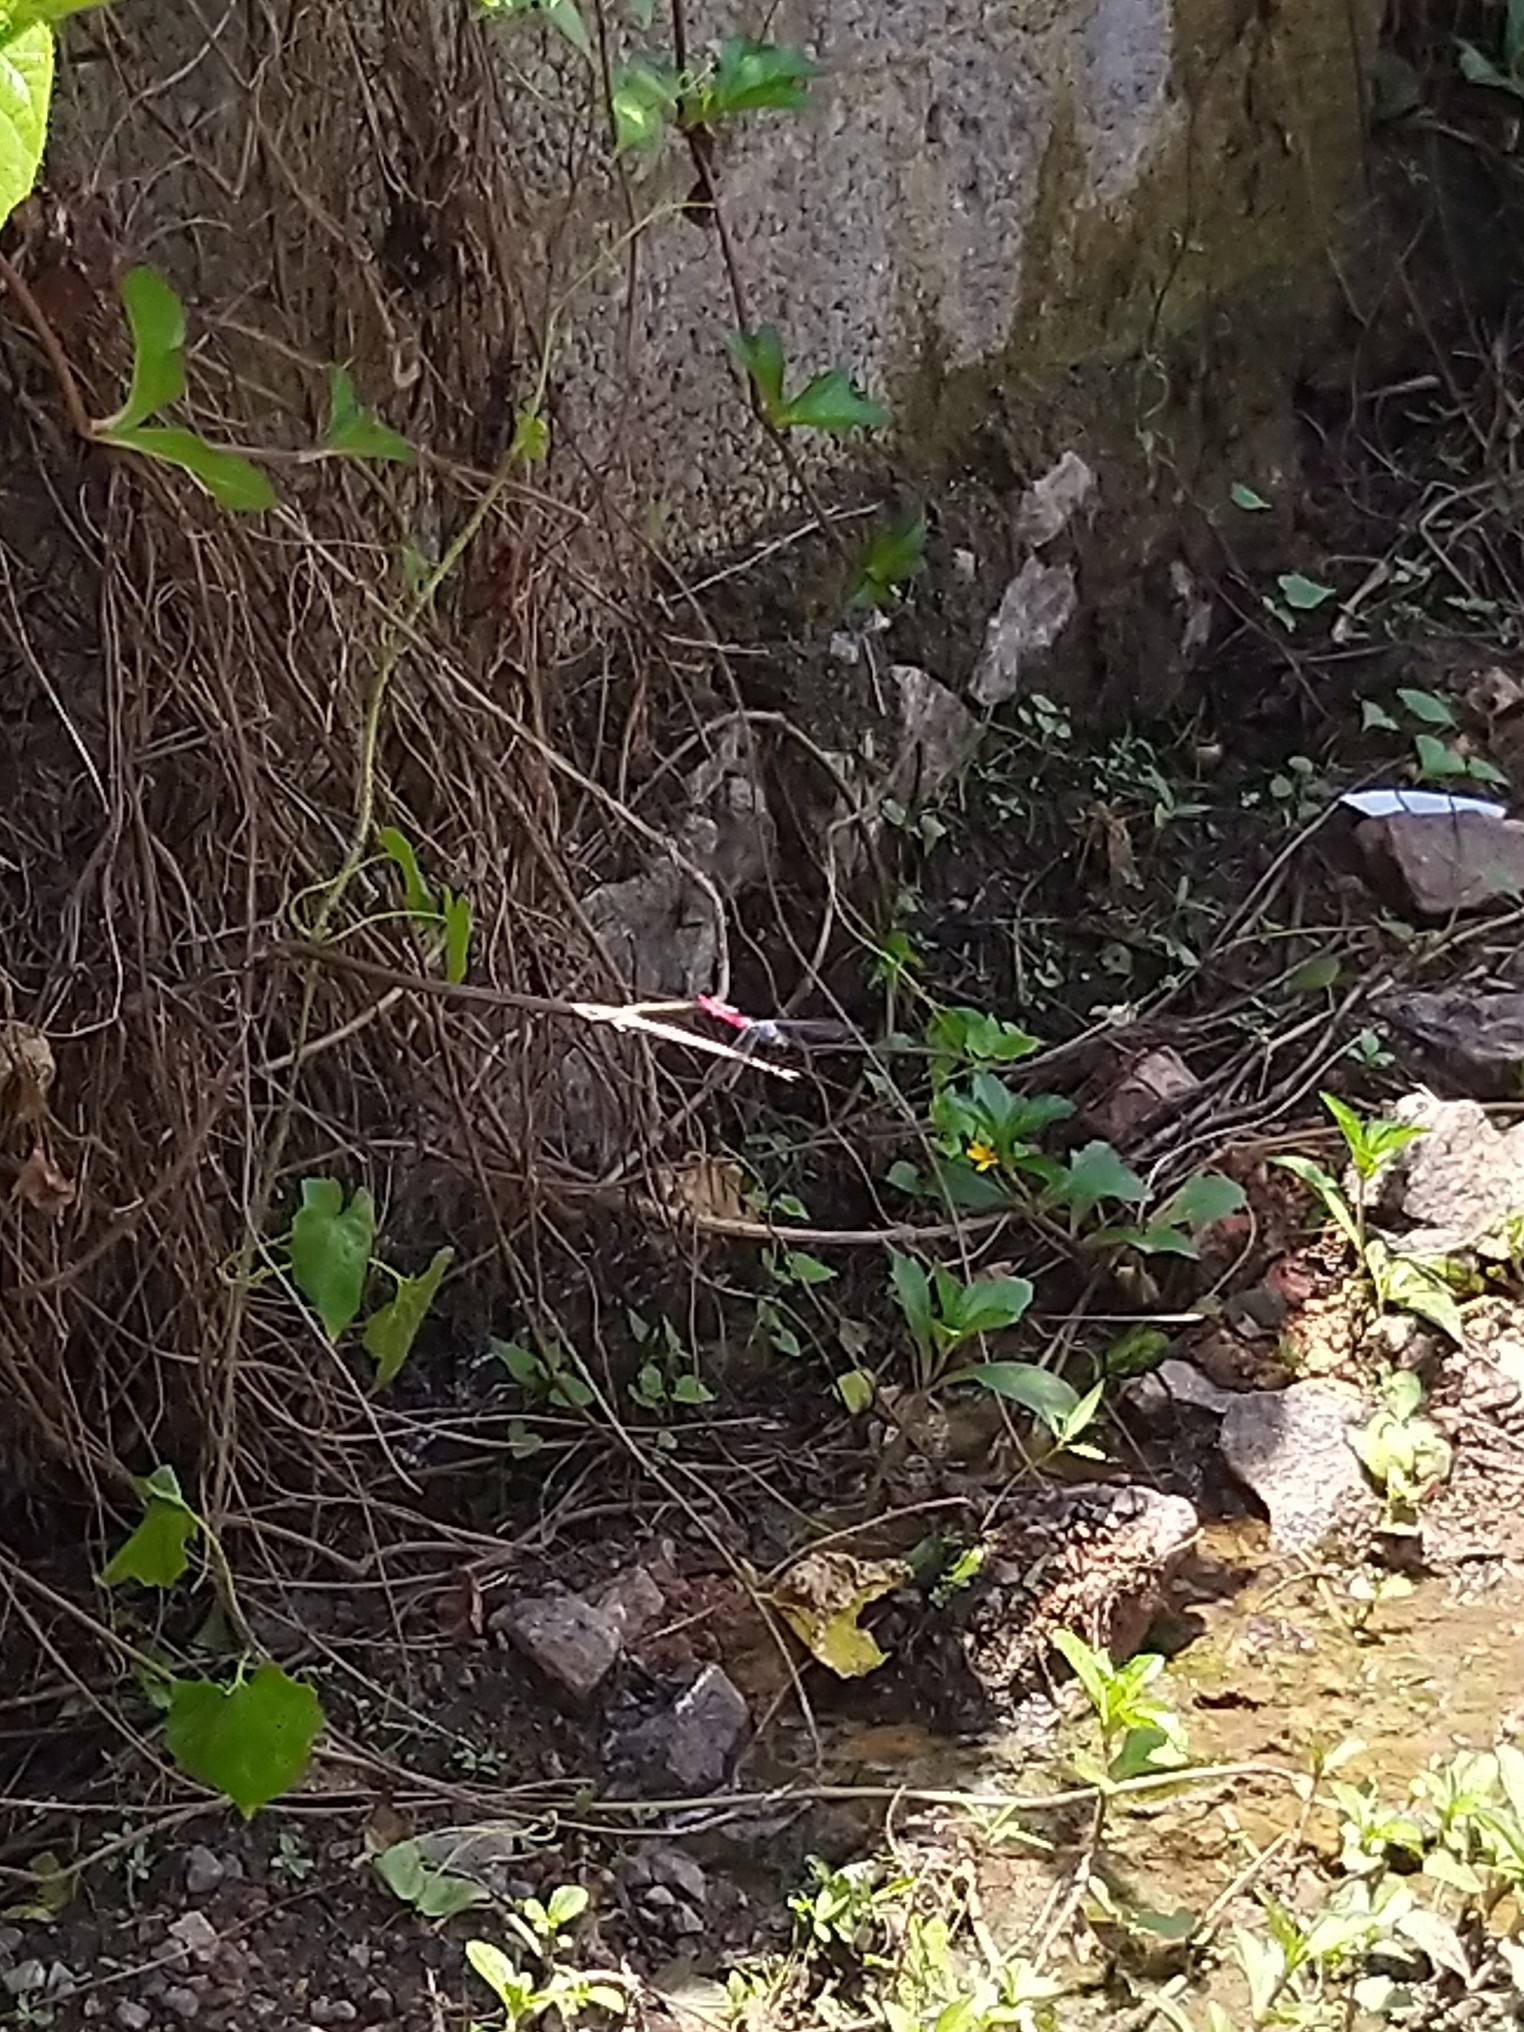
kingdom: Animalia
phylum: Arthropoda
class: Insecta
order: Odonata
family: Libellulidae
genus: Orthetrum
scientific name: Orthetrum pruinosum
